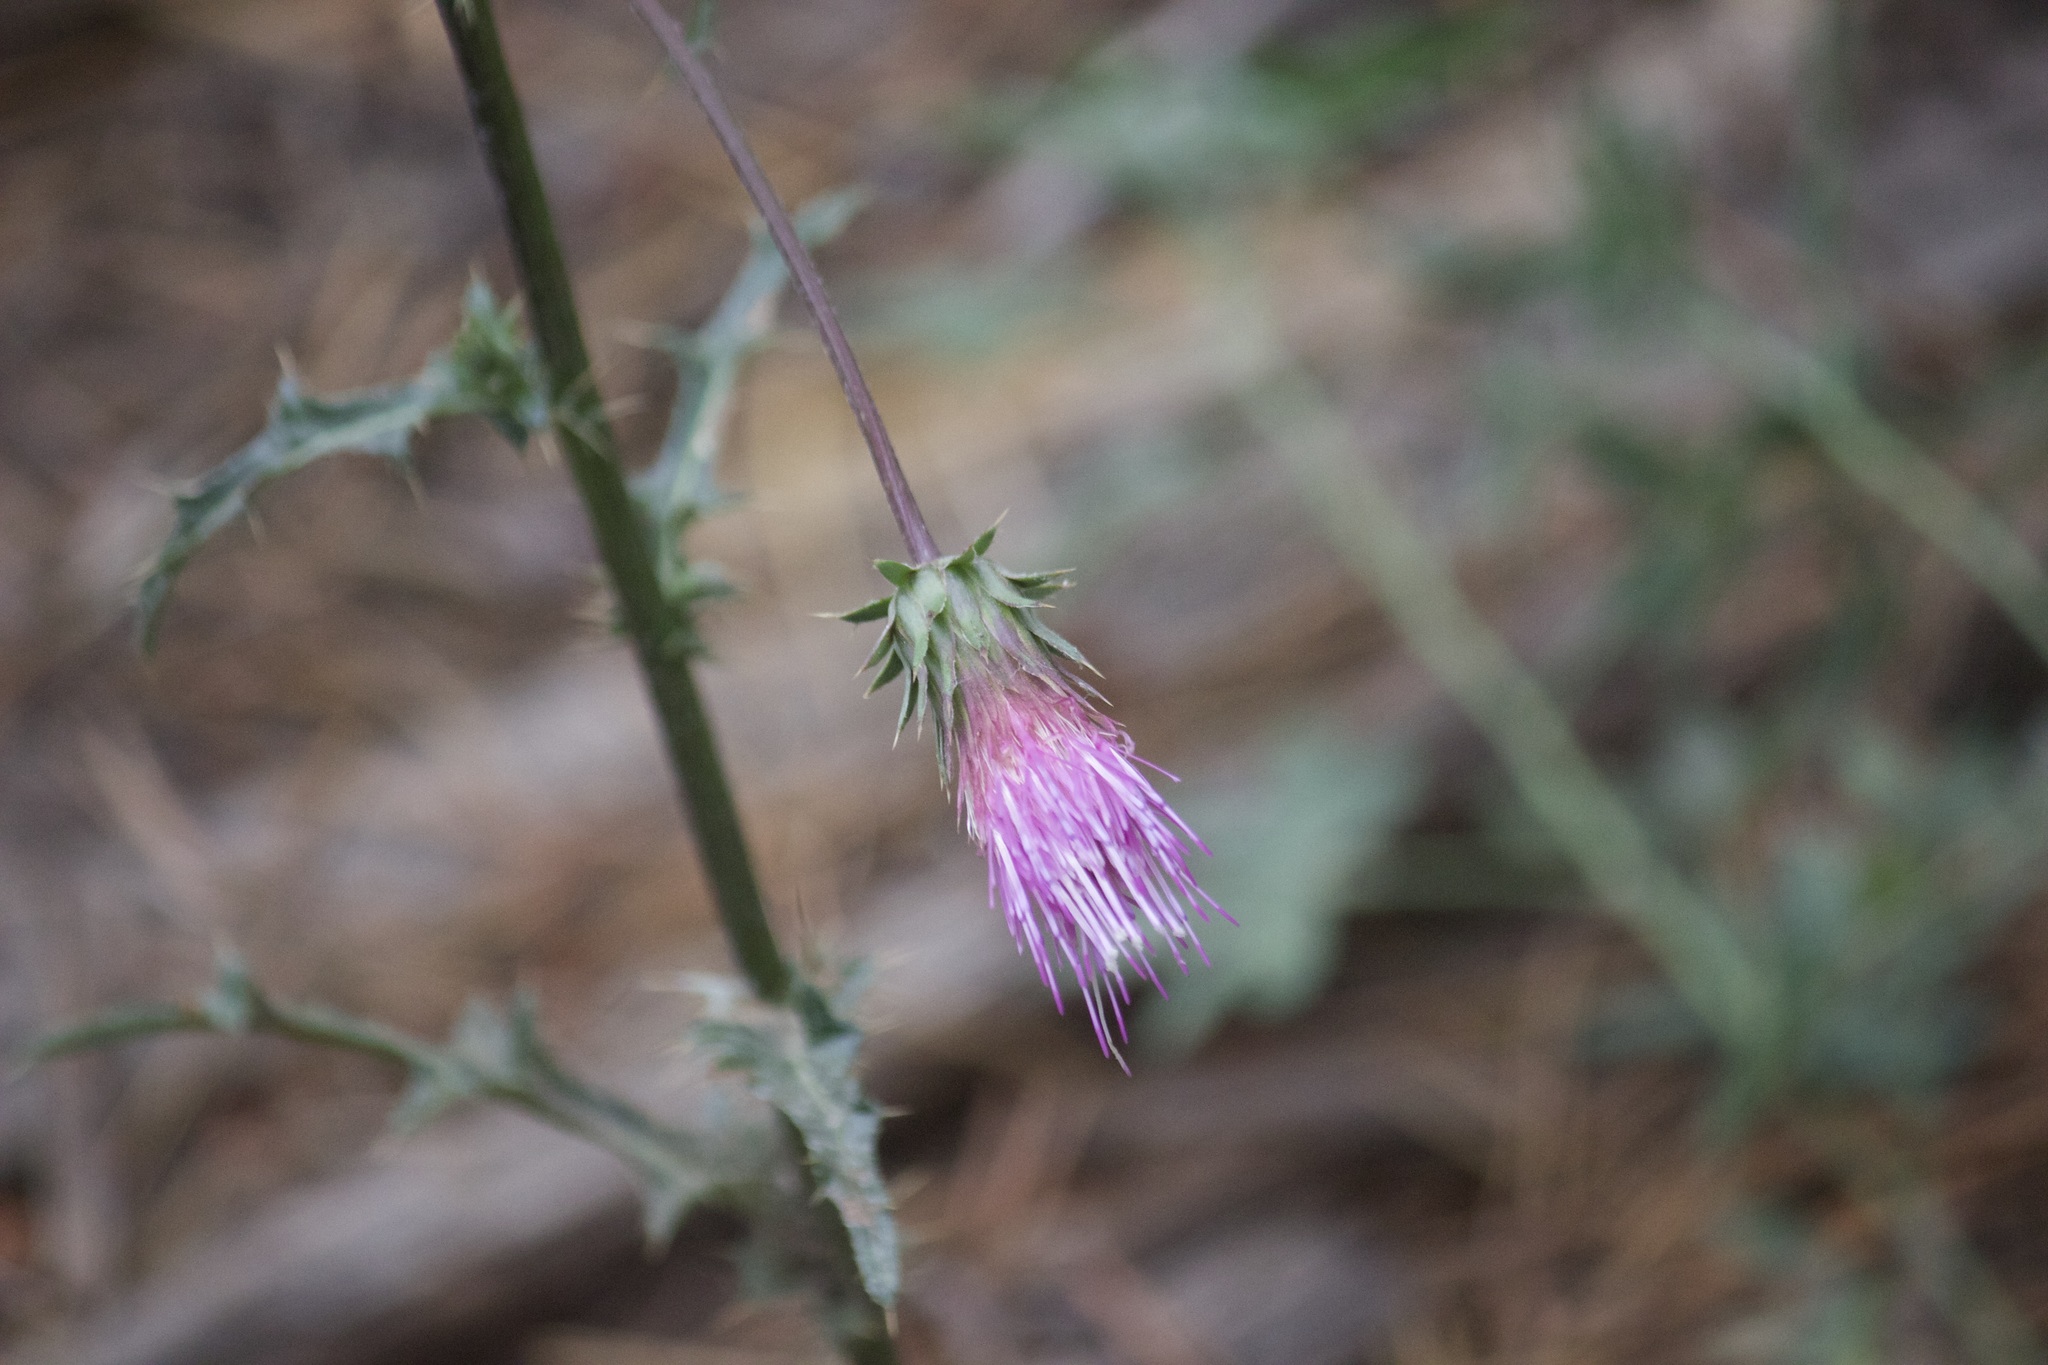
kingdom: Plantae
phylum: Tracheophyta
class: Magnoliopsida
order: Asterales
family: Asteraceae
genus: Cirsium
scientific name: Cirsium andersonii
